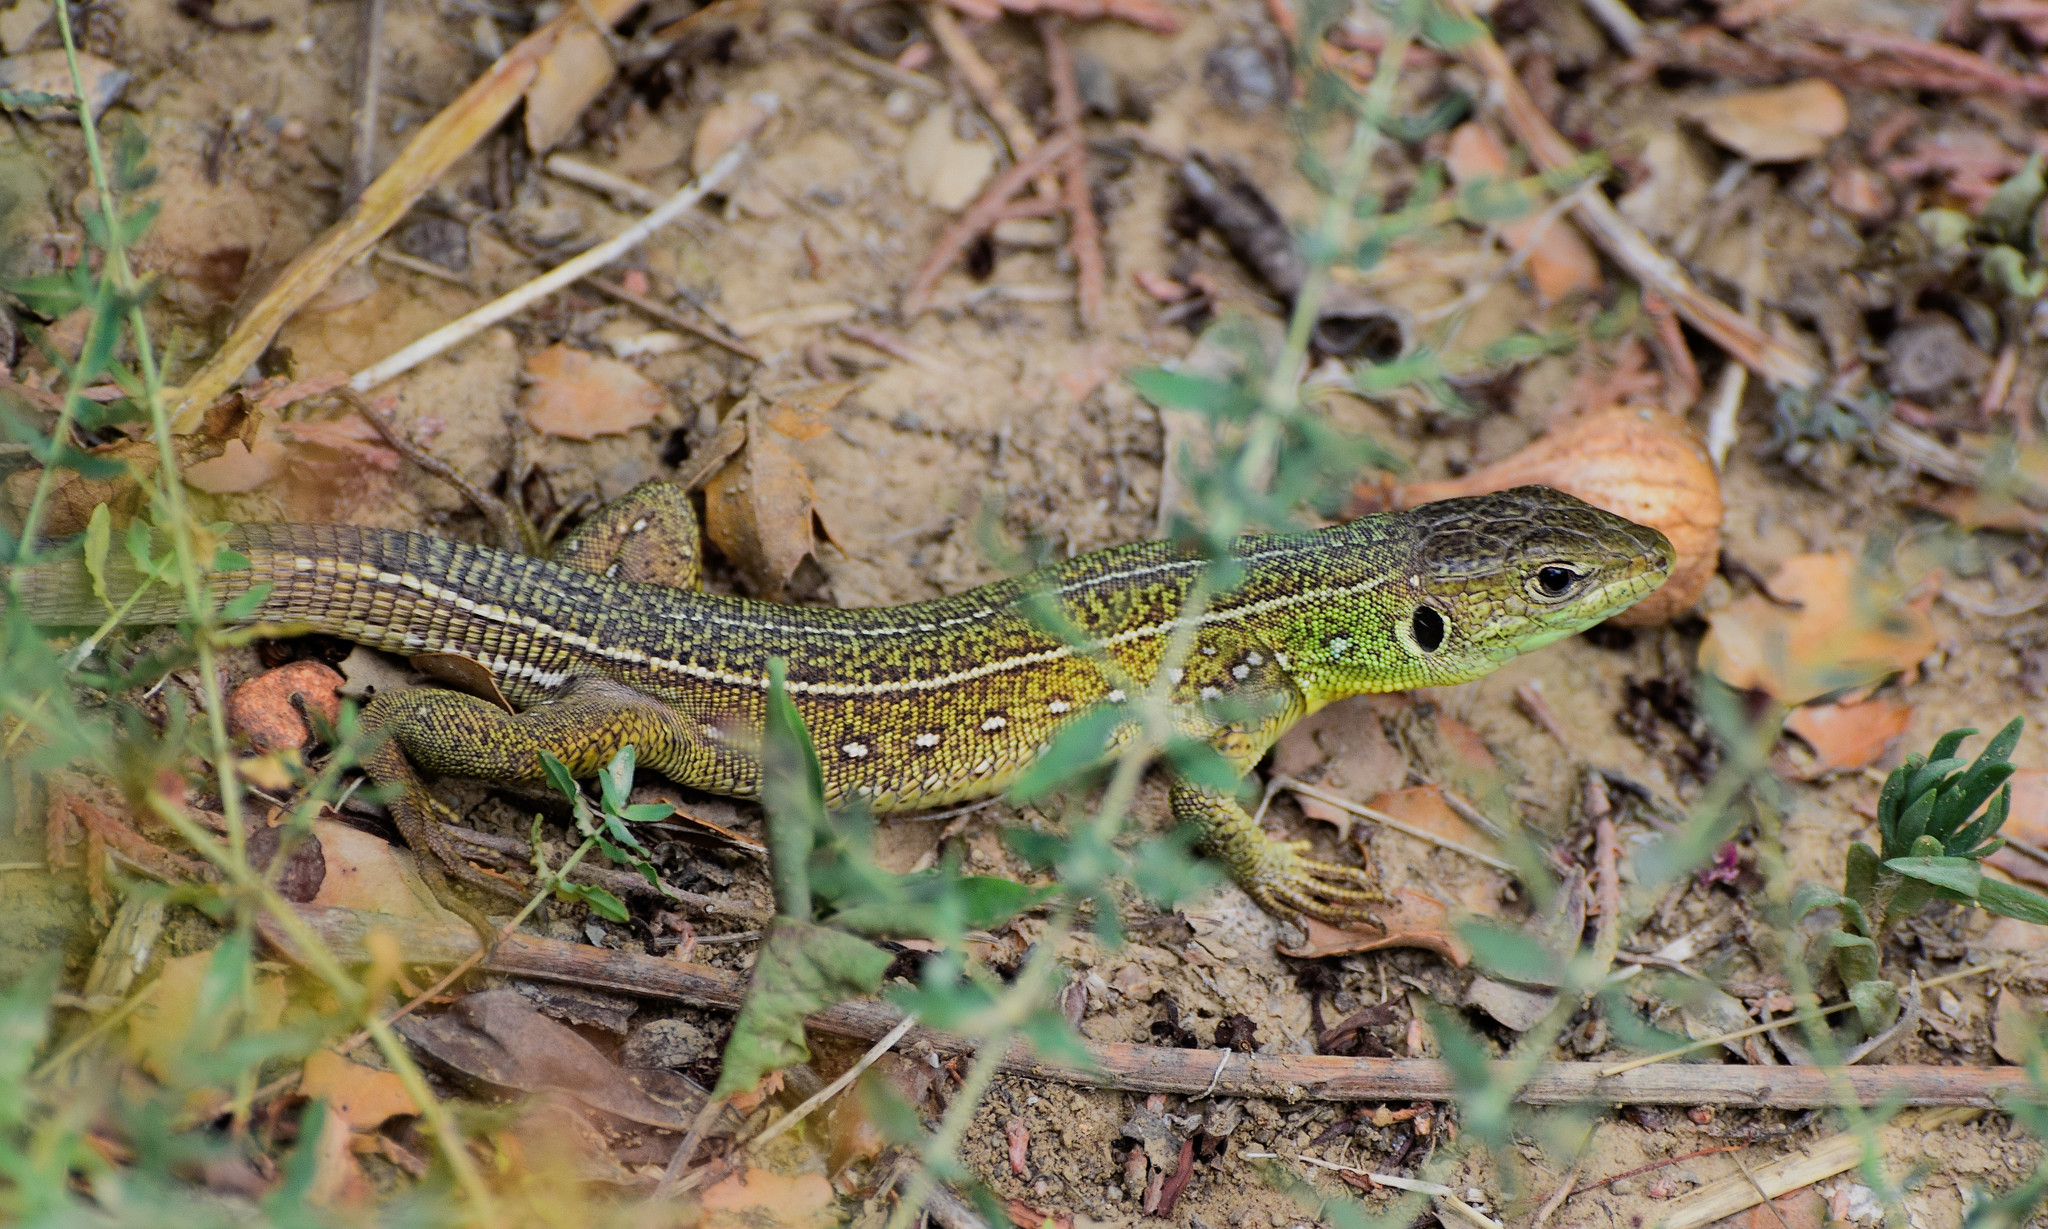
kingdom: Animalia
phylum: Chordata
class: Squamata
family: Lacertidae
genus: Lacerta
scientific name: Lacerta trilineata
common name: Balkan green lizard
